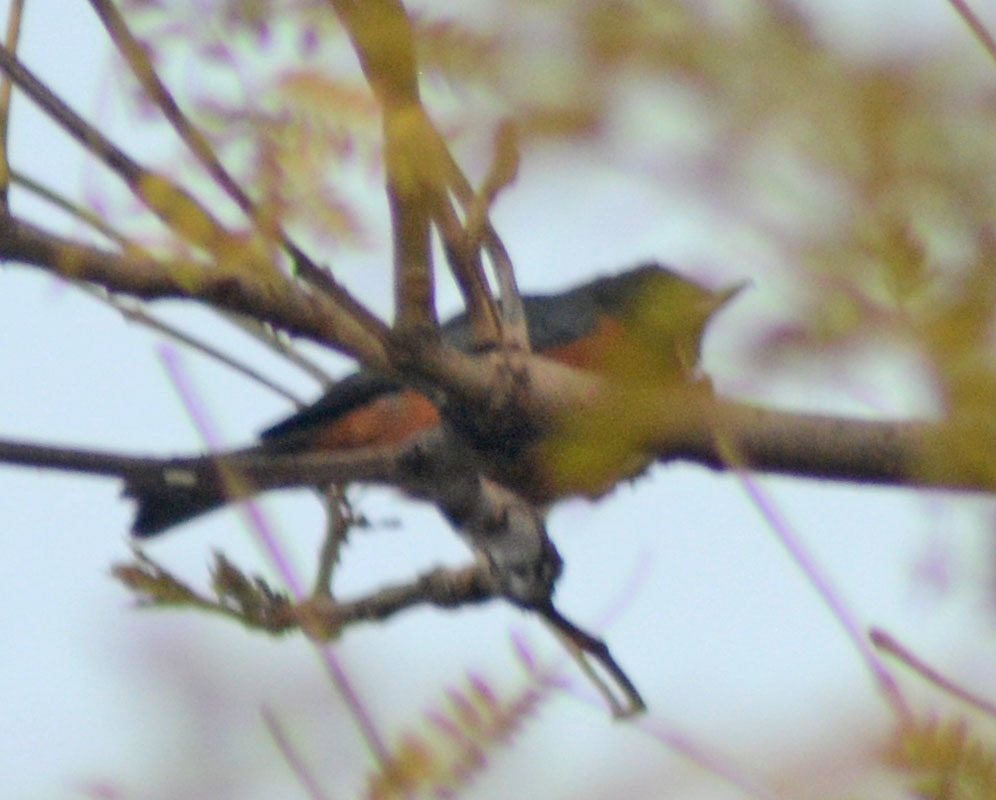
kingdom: Animalia
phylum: Chordata
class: Aves
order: Passeriformes
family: Thraupidae
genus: Diglossa
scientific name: Diglossa baritula
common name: Cinnamon-bellied flowerpiercer
